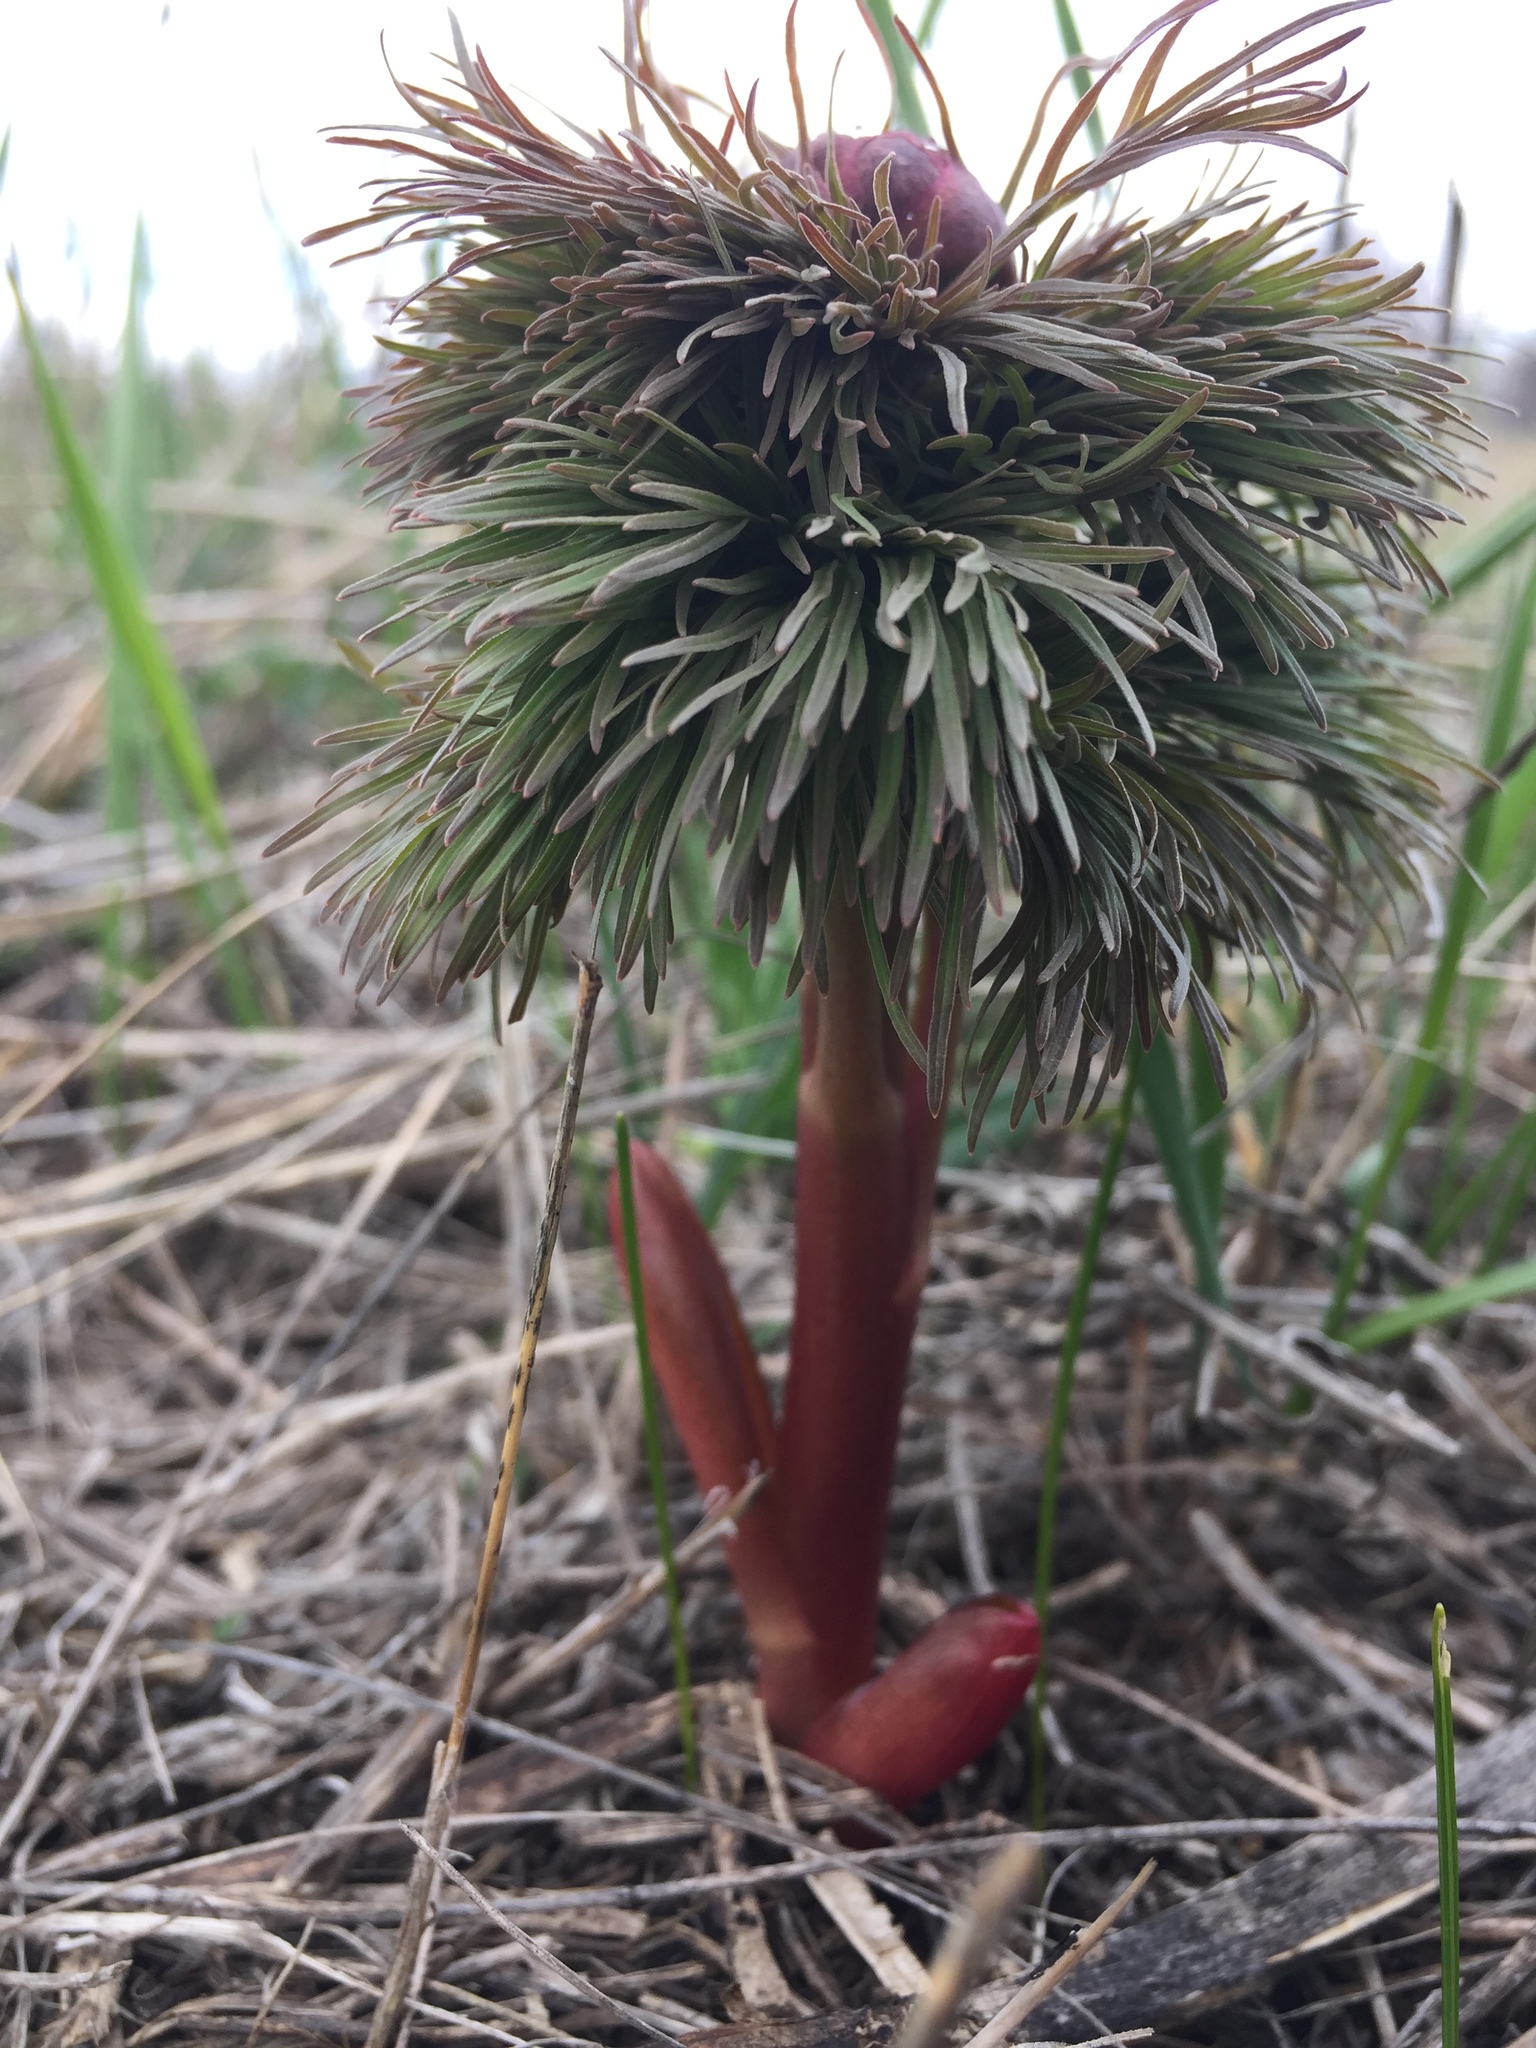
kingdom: Plantae
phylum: Tracheophyta
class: Magnoliopsida
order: Saxifragales
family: Paeoniaceae
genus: Paeonia
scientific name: Paeonia tenuifolia
